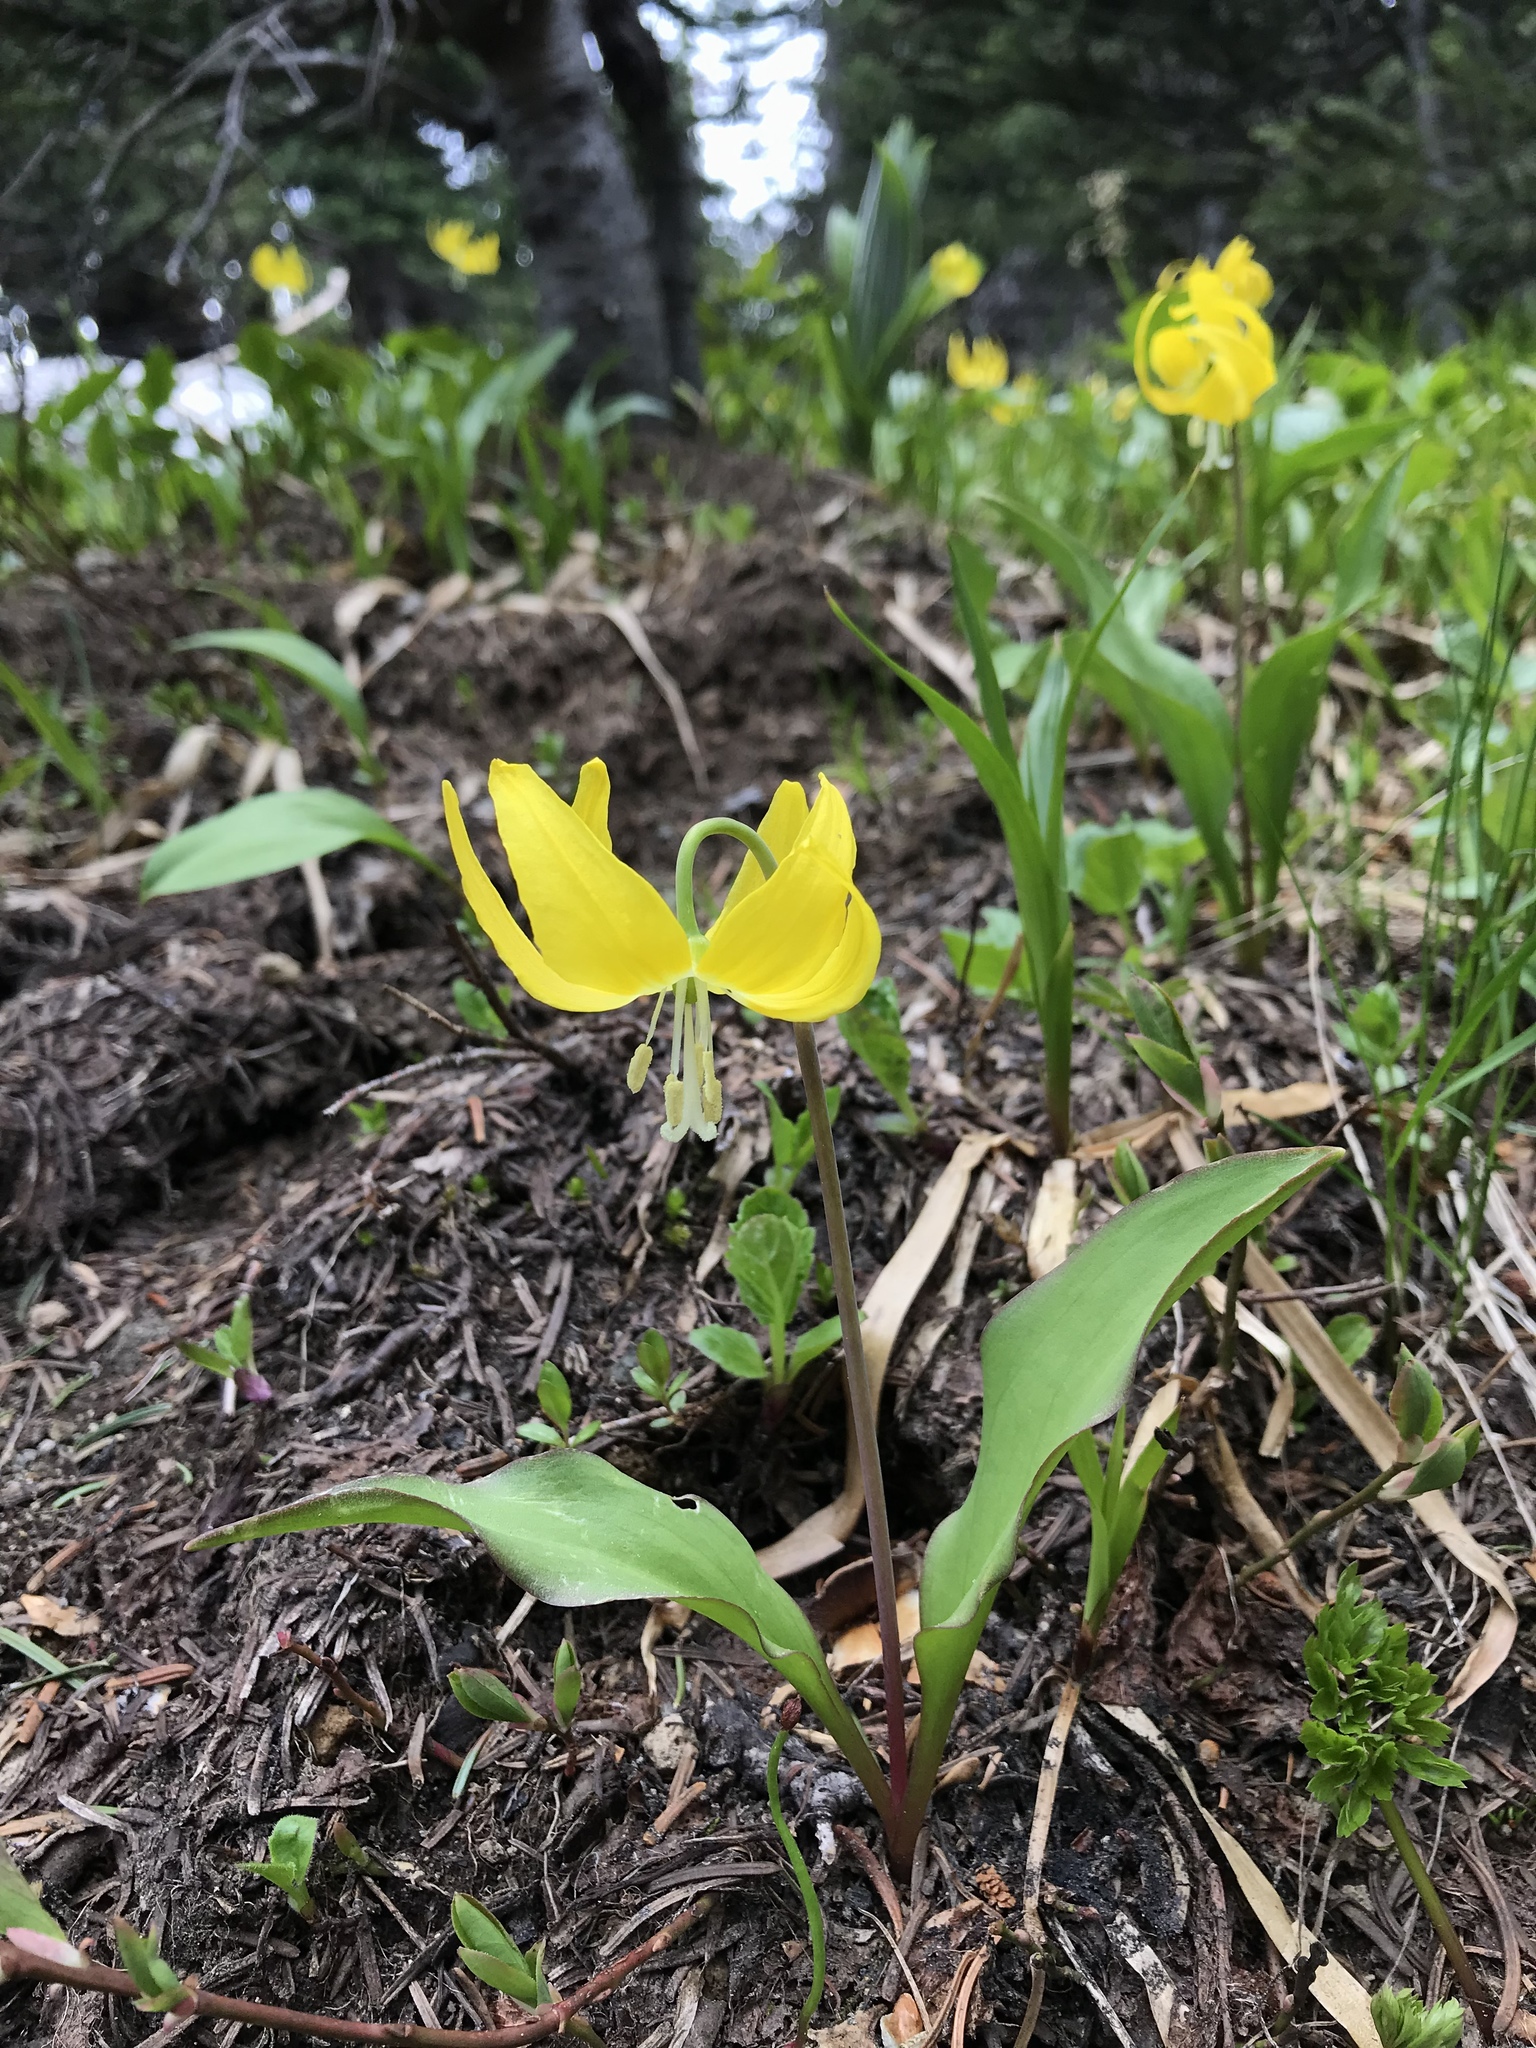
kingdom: Plantae
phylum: Tracheophyta
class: Liliopsida
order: Liliales
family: Liliaceae
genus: Erythronium
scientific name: Erythronium grandiflorum
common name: Avalanche-lily
